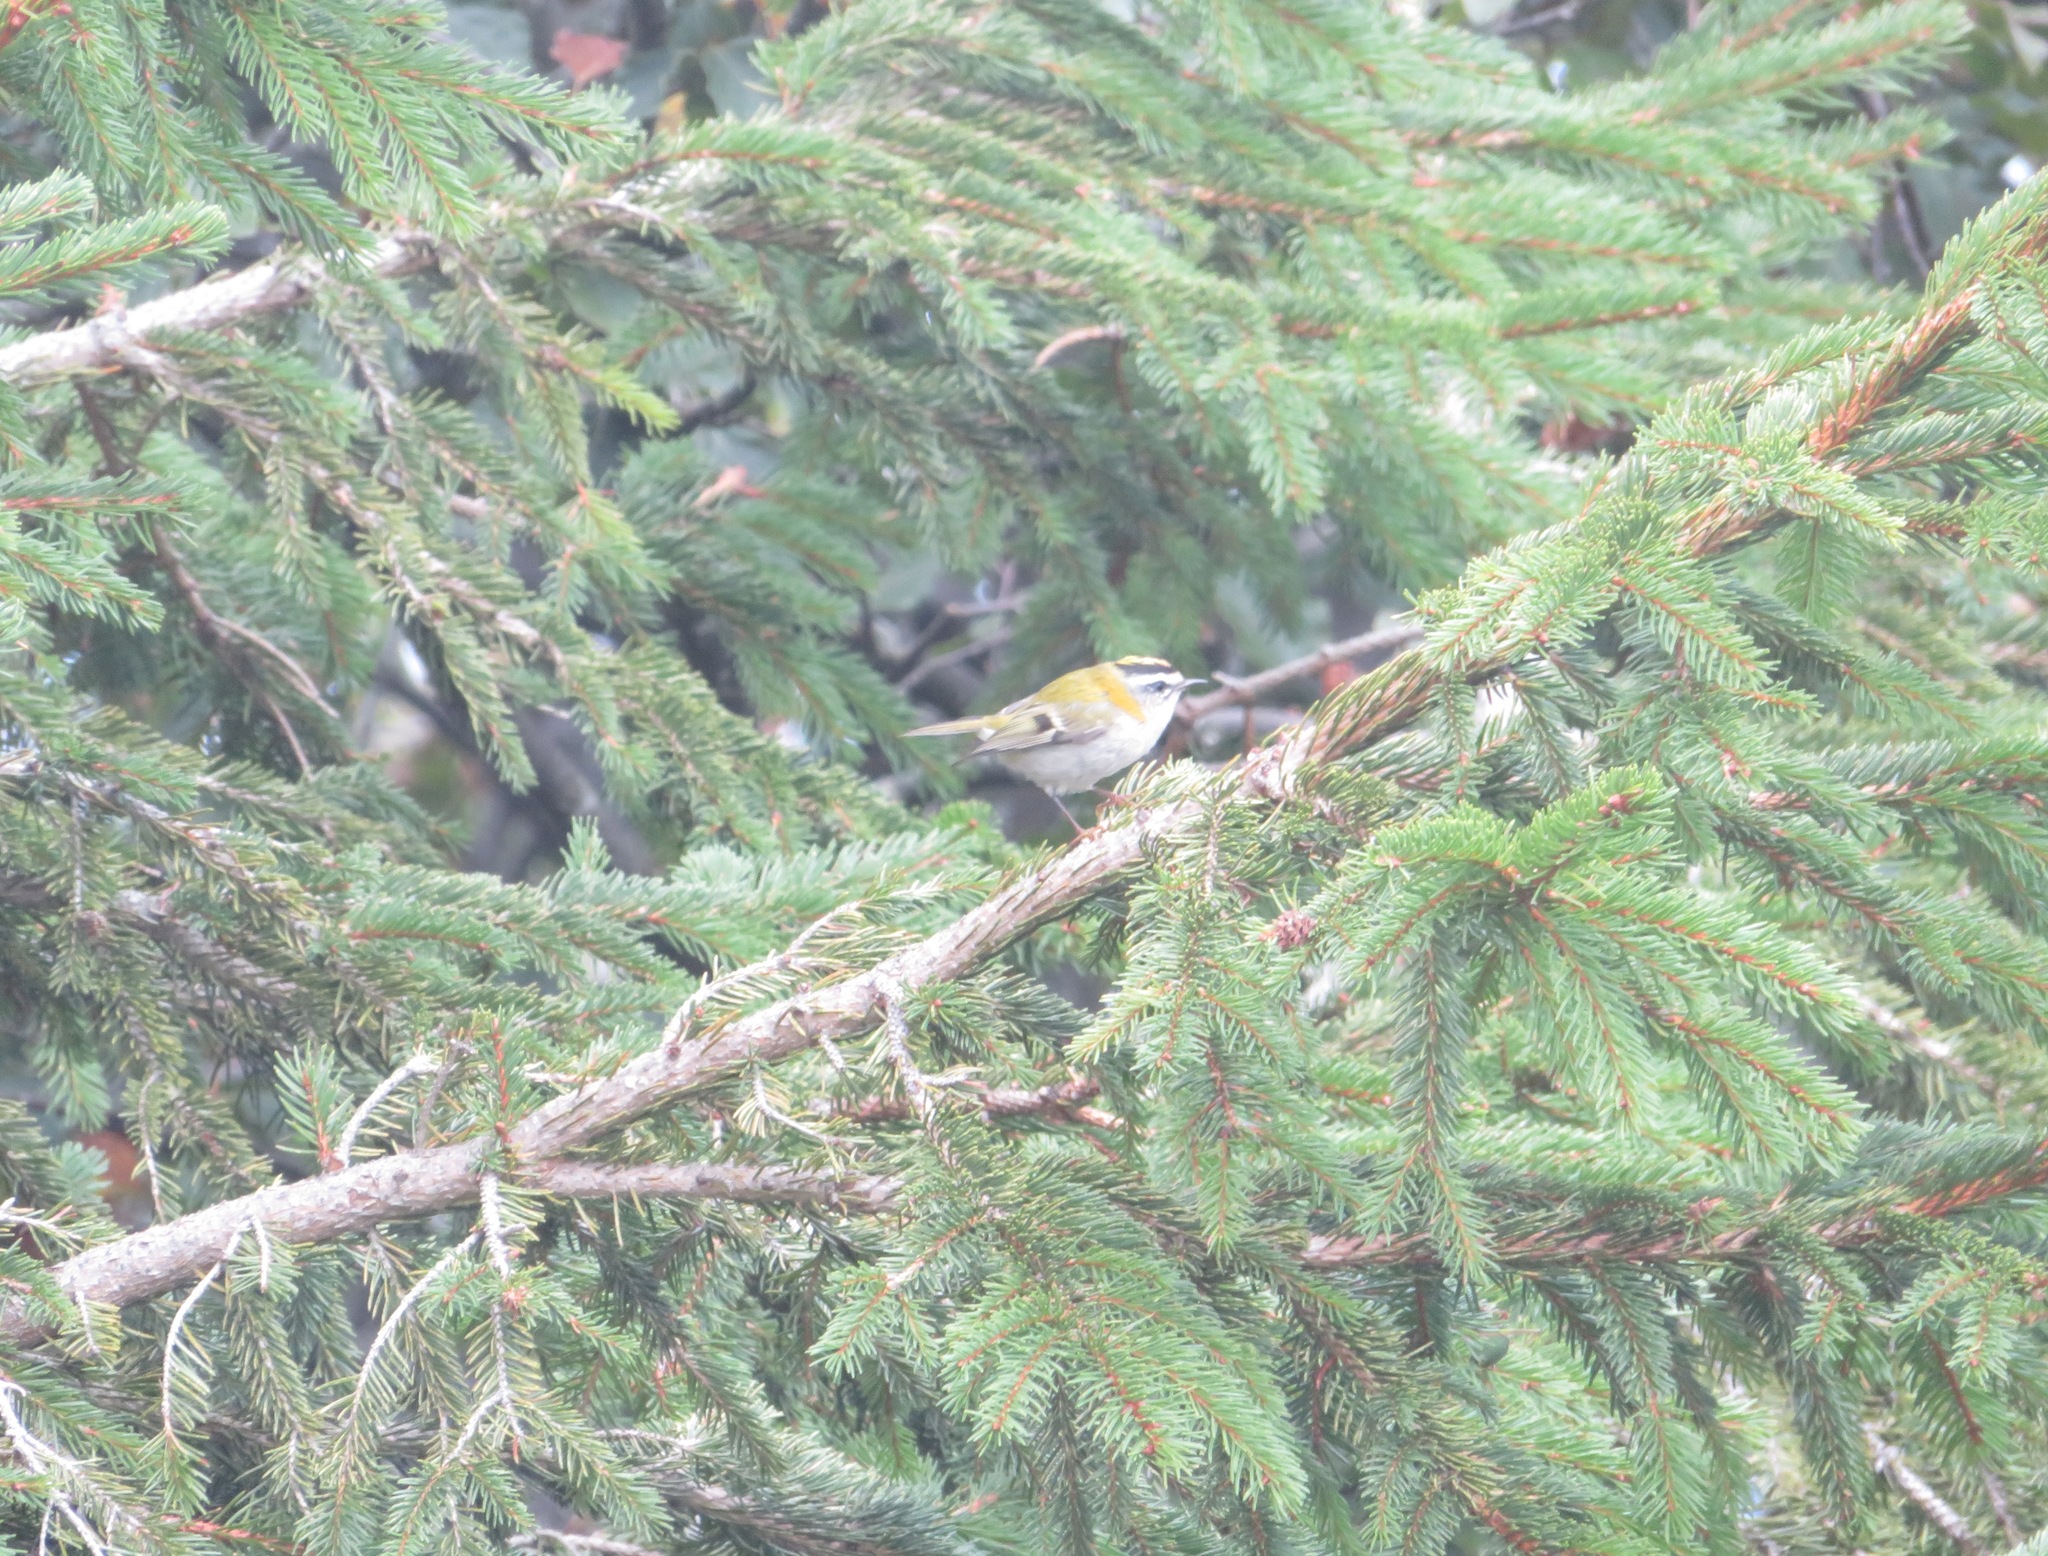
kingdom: Animalia
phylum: Chordata
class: Aves
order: Passeriformes
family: Regulidae
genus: Regulus
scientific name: Regulus ignicapilla
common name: Firecrest
